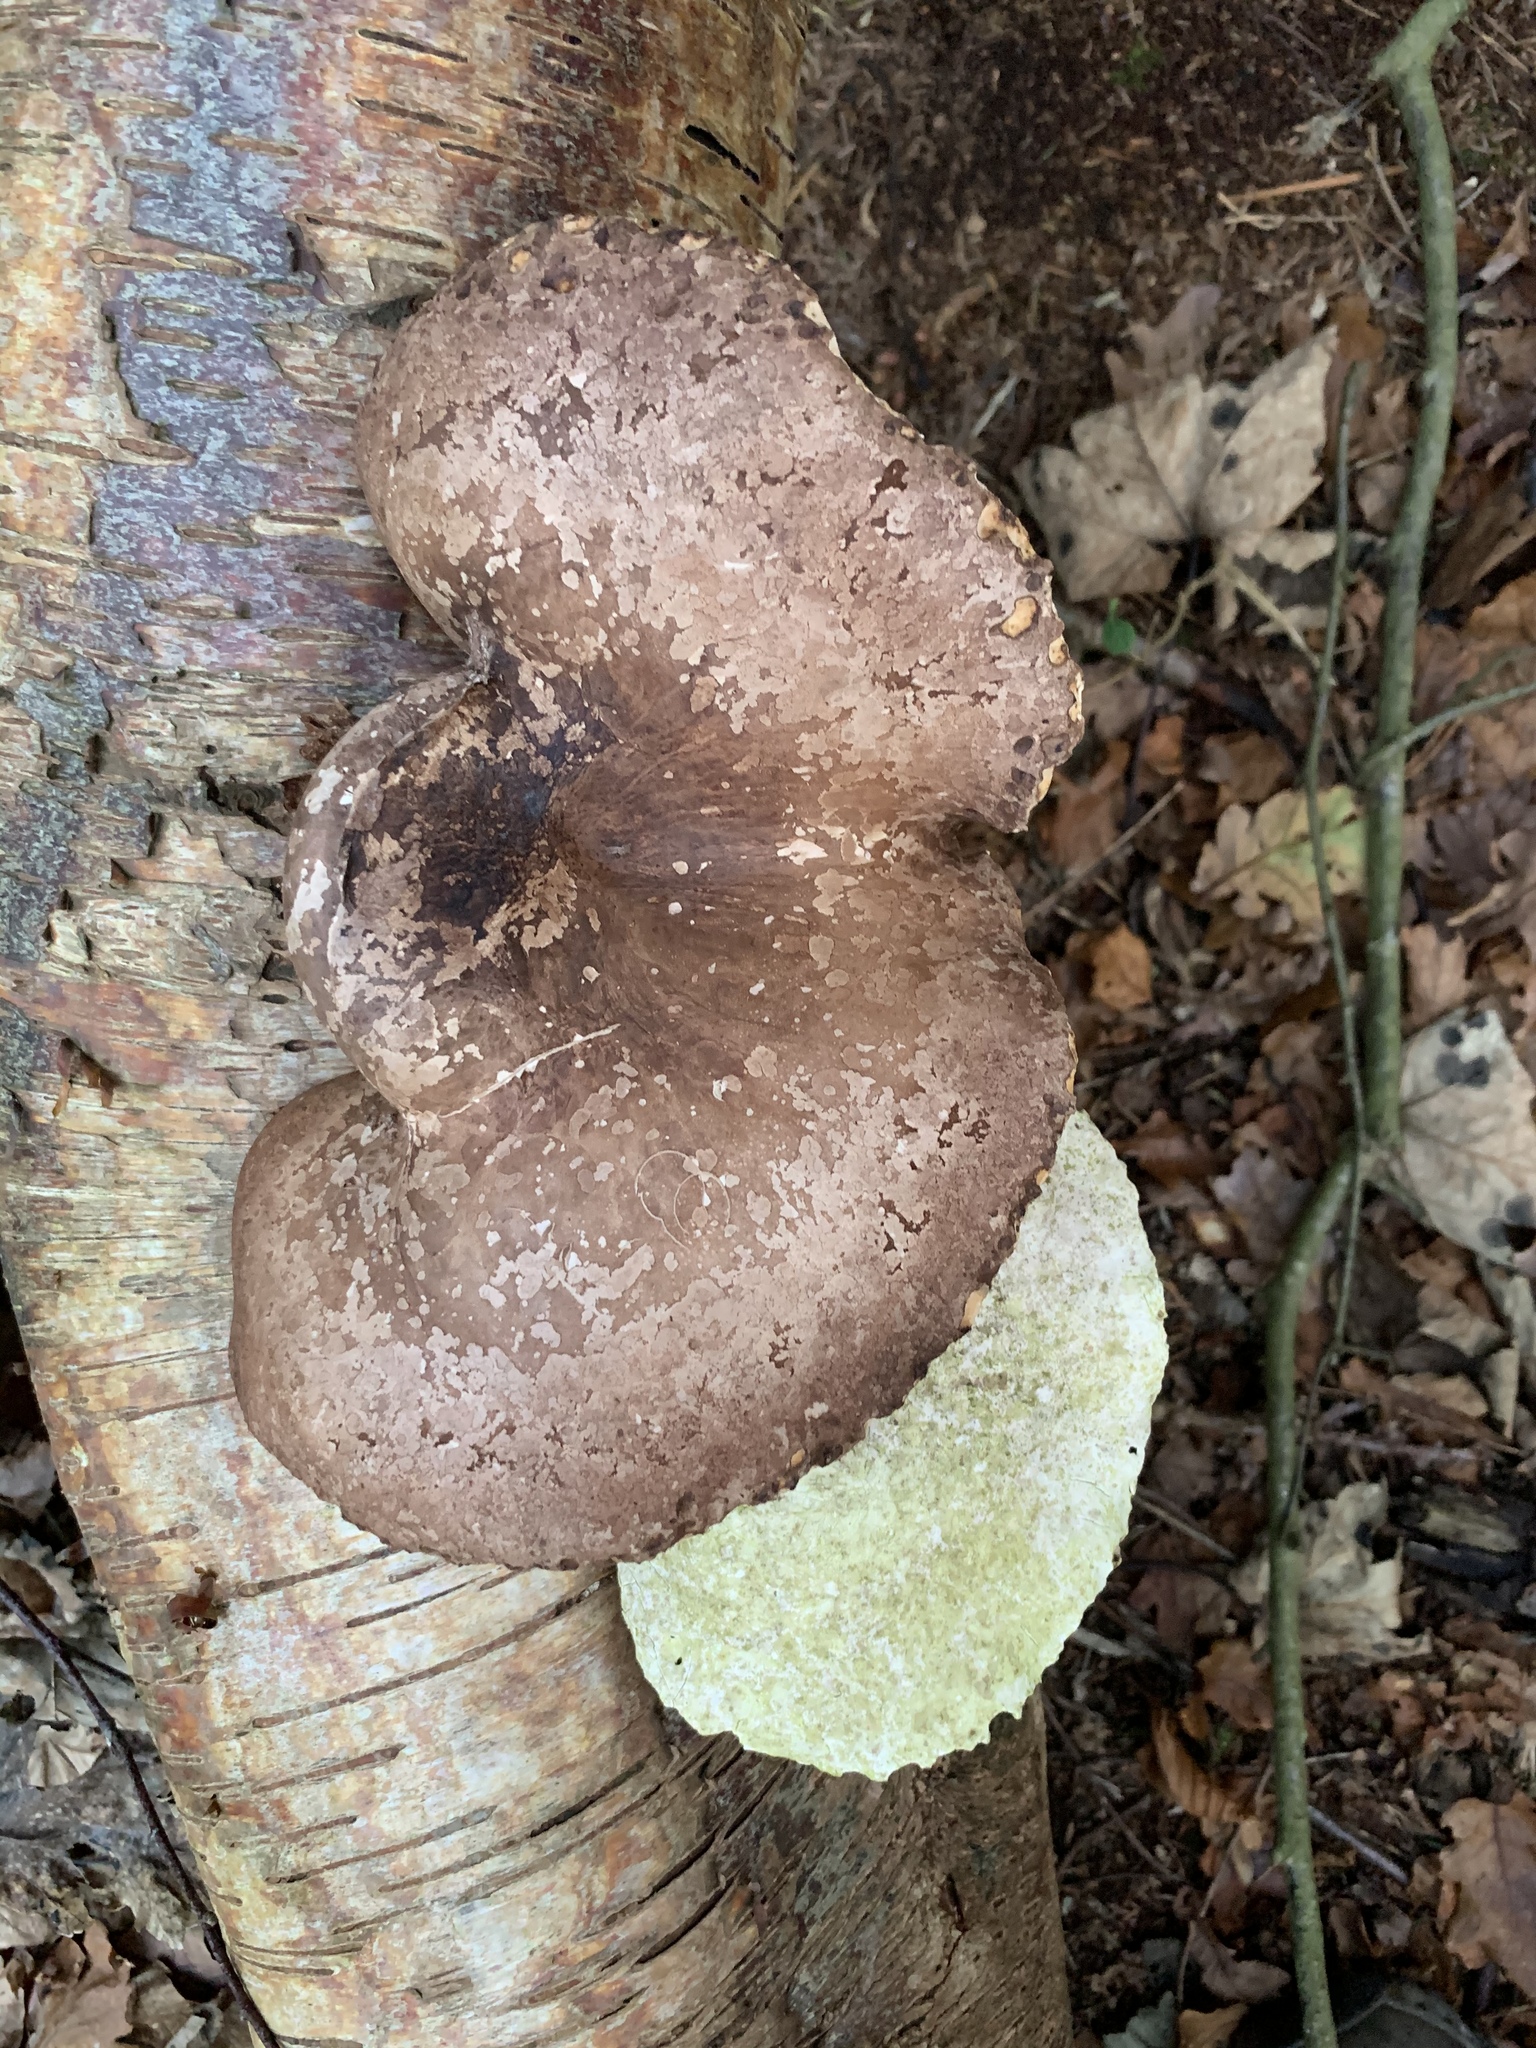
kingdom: Fungi
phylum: Basidiomycota
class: Agaricomycetes
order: Polyporales
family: Fomitopsidaceae
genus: Fomitopsis
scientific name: Fomitopsis betulina
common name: Birch polypore
